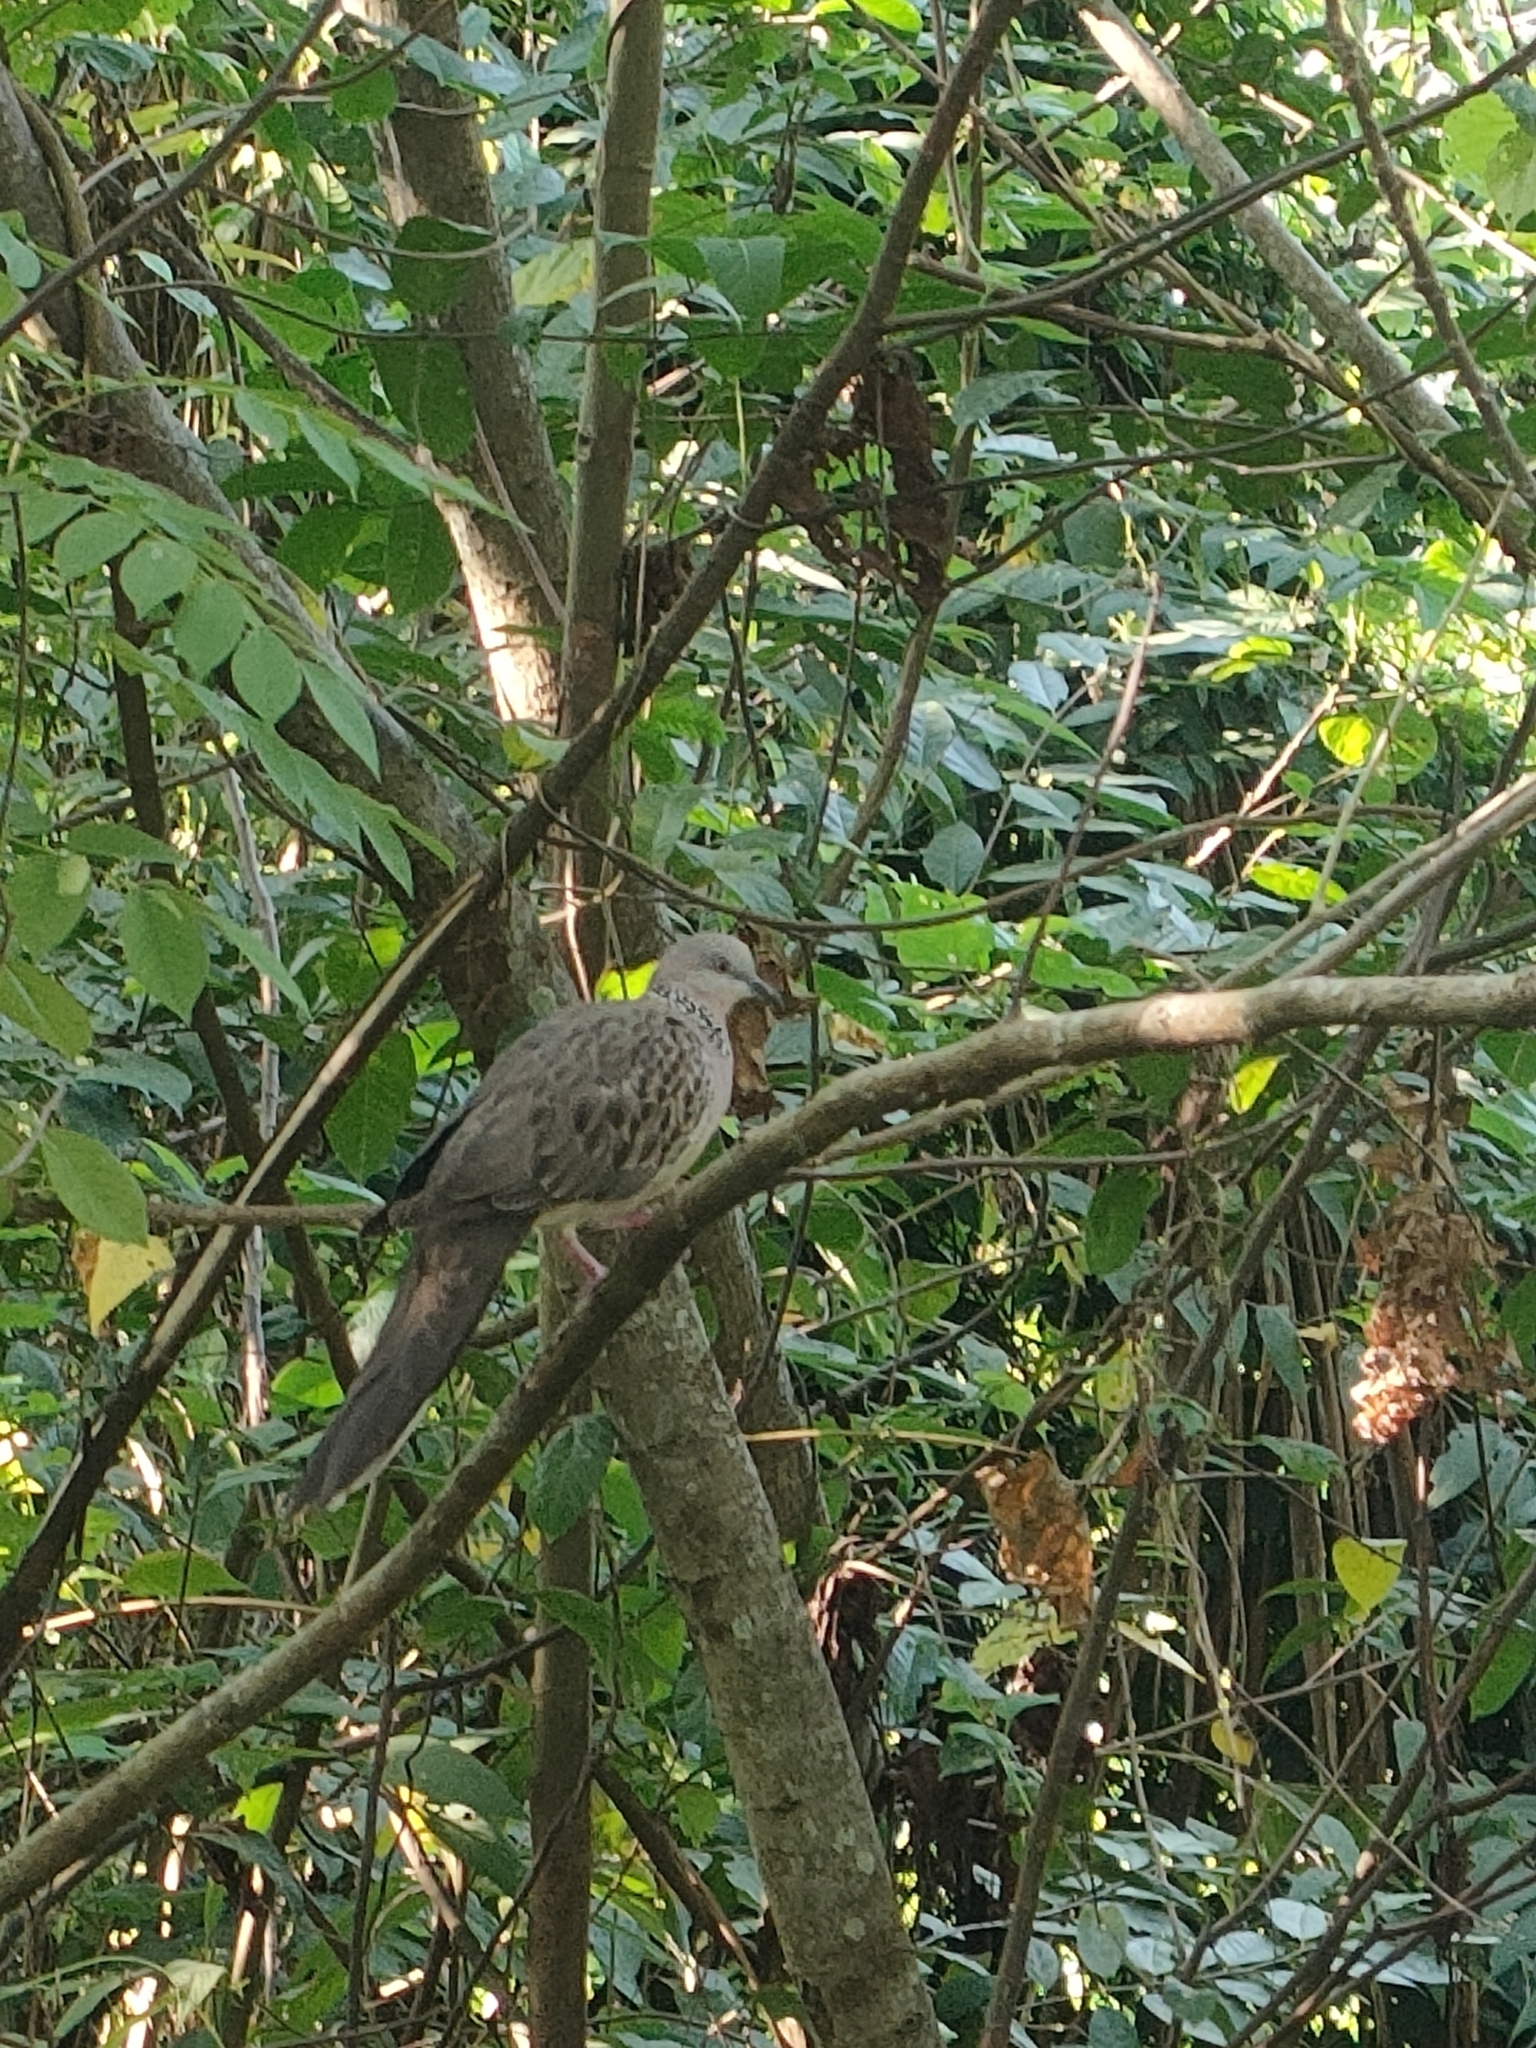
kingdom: Animalia
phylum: Chordata
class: Aves
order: Columbiformes
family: Columbidae
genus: Spilopelia
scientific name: Spilopelia chinensis
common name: Spotted dove
